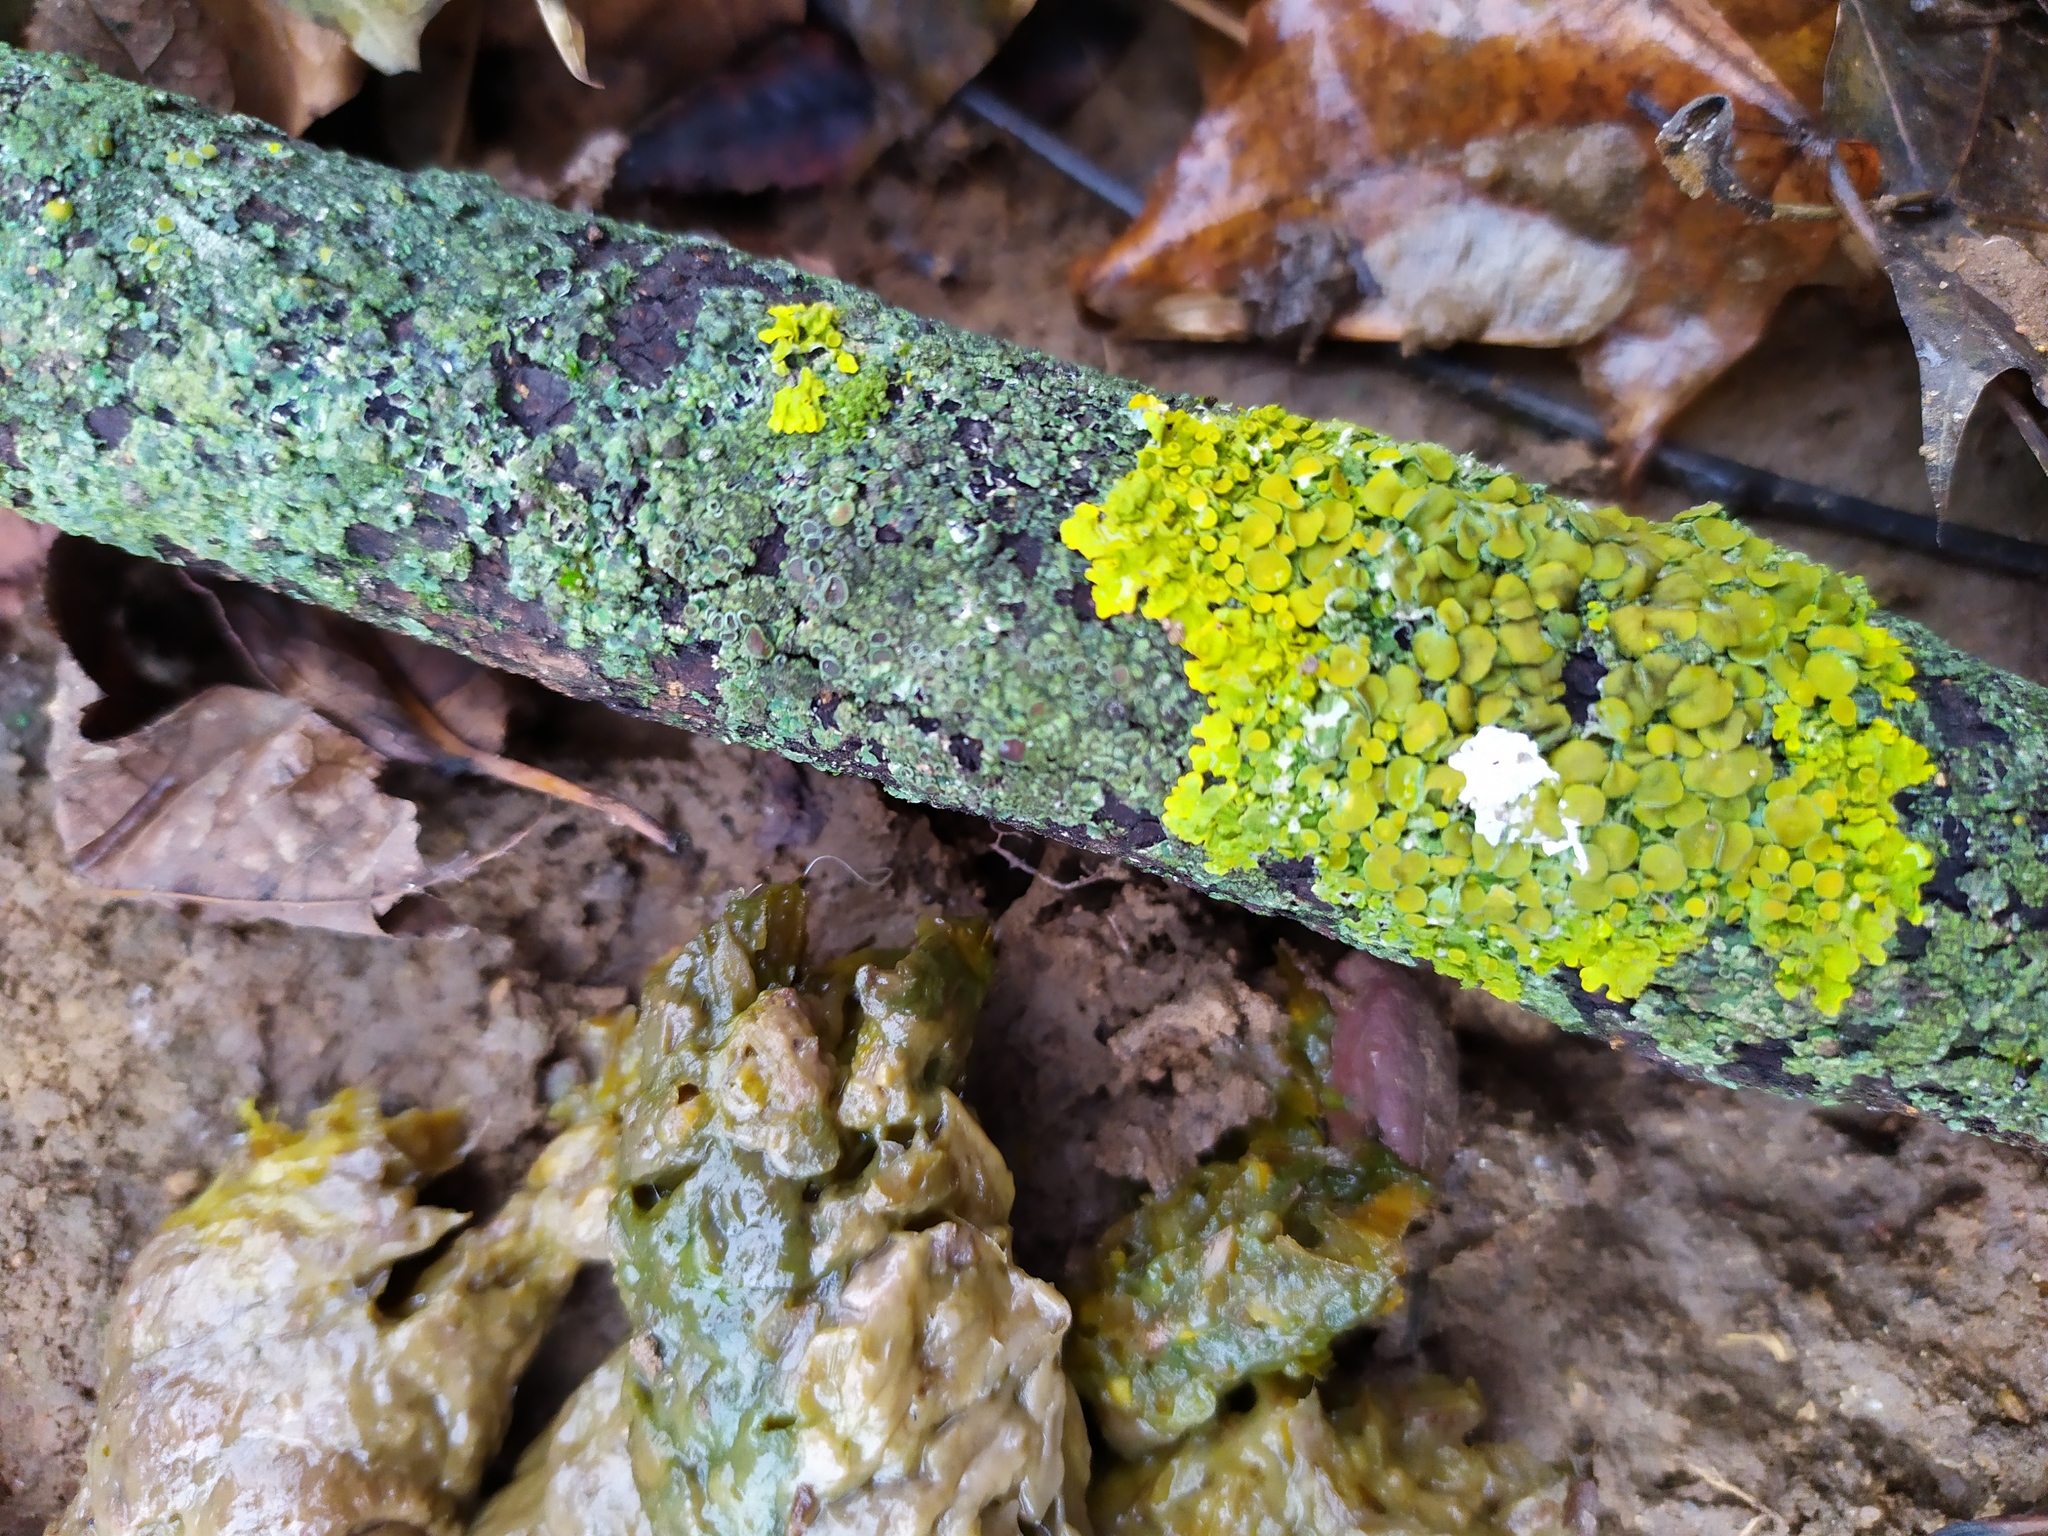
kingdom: Fungi
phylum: Ascomycota
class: Lecanoromycetes
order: Teloschistales
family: Teloschistaceae
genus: Xanthoria
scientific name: Xanthoria parietina
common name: Common orange lichen
